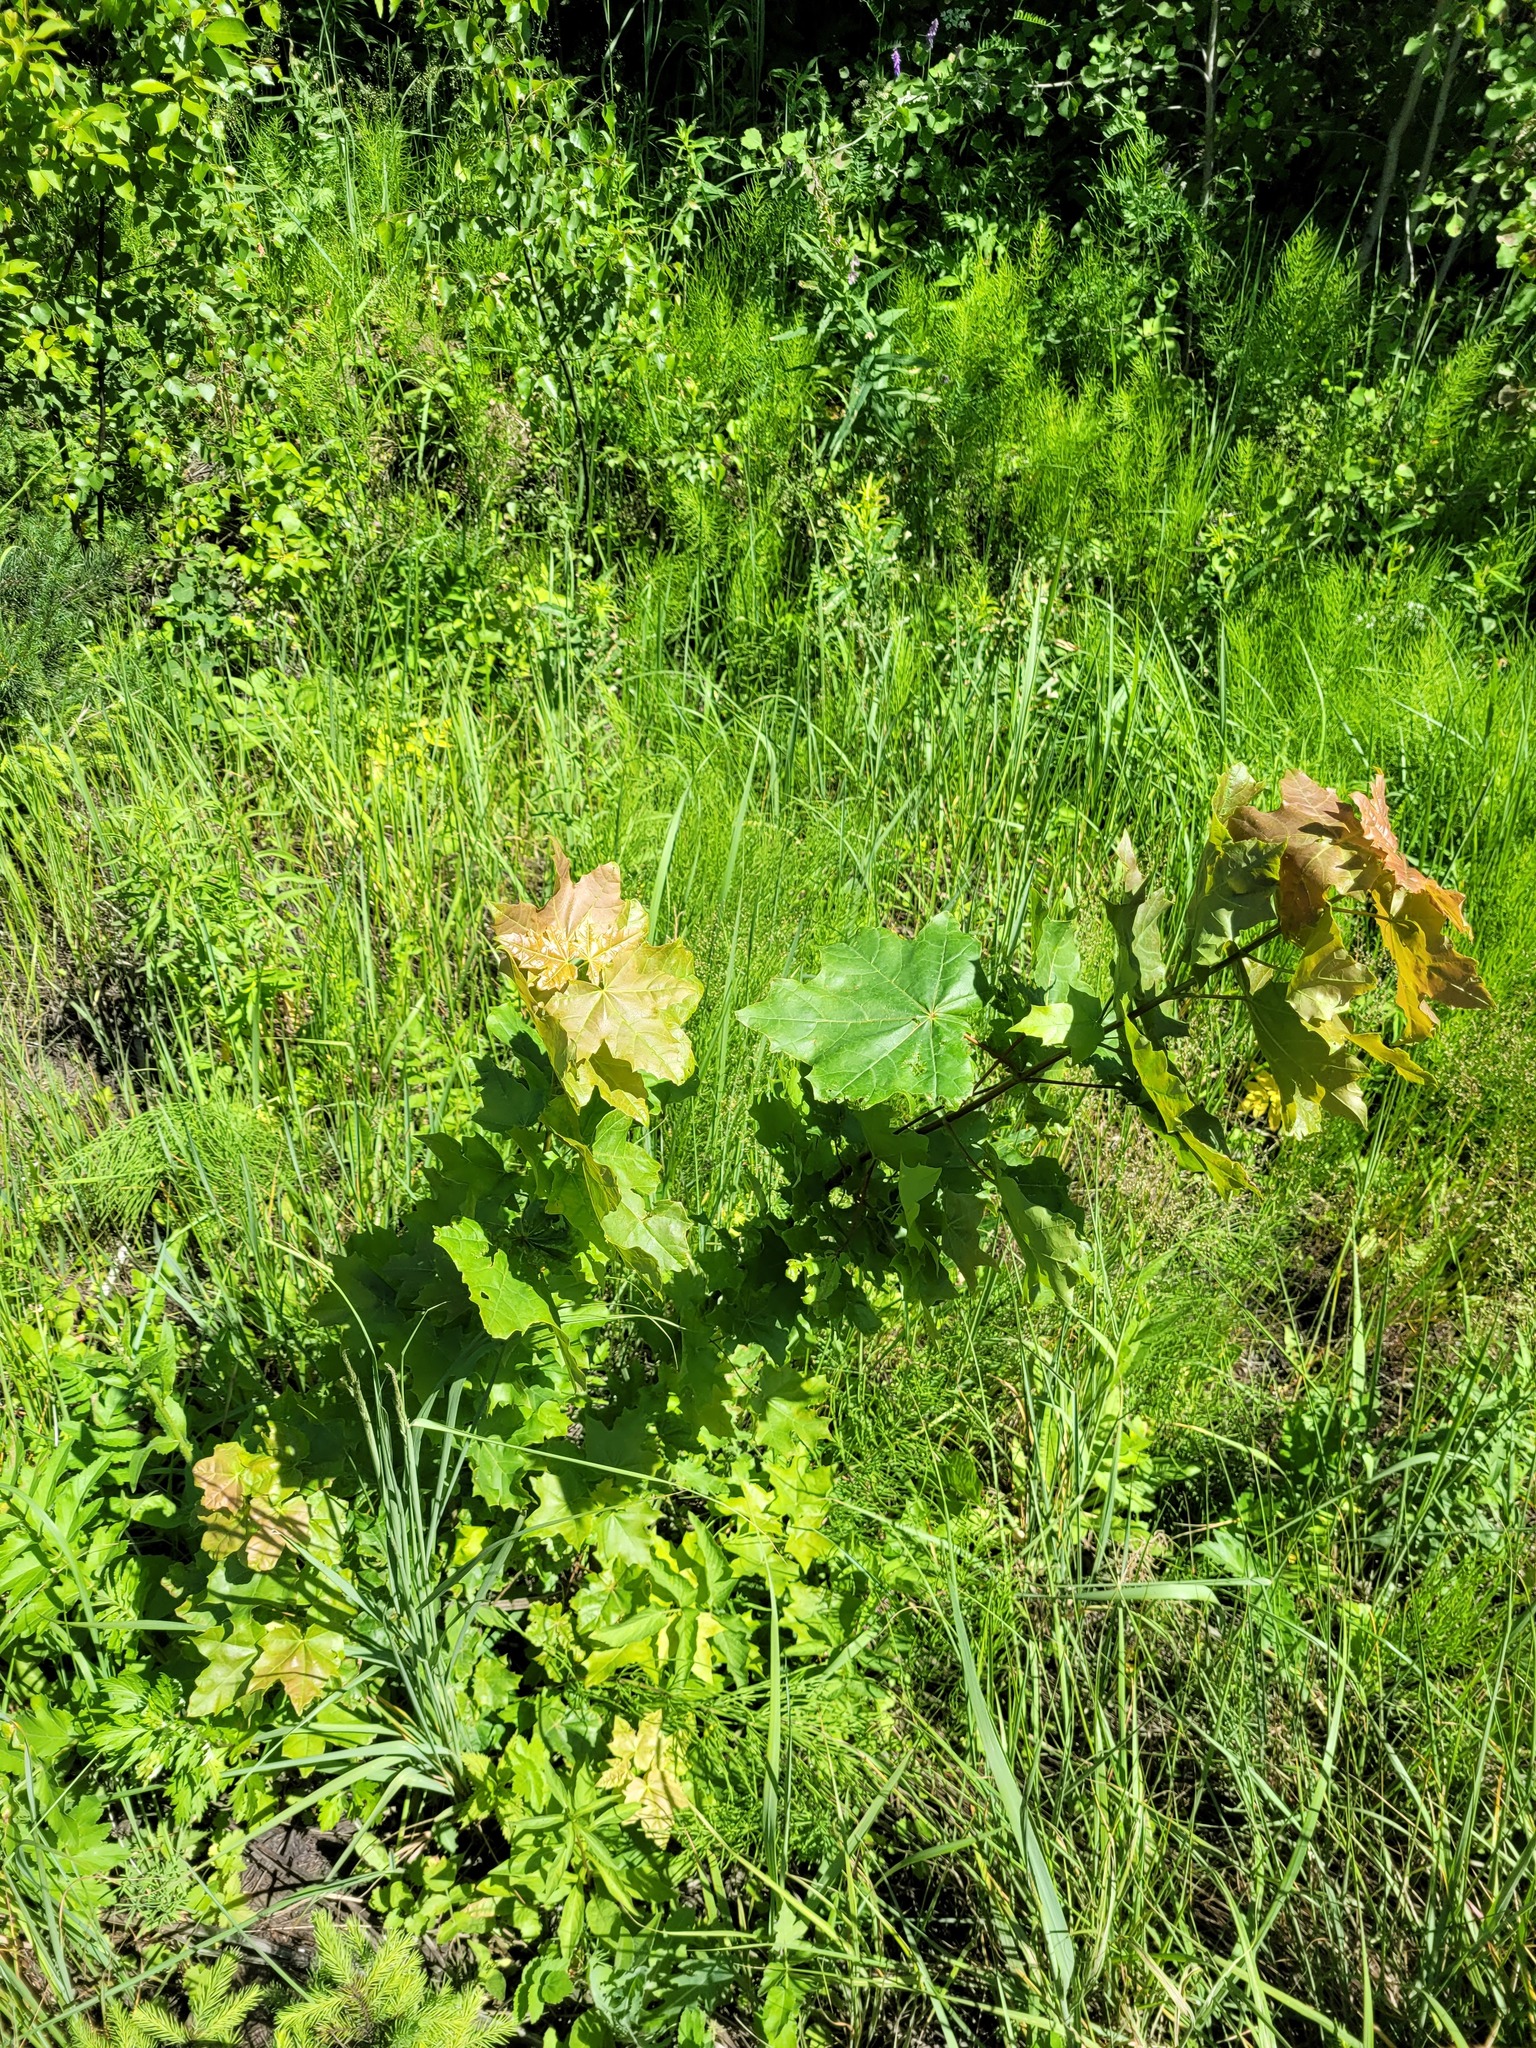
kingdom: Plantae
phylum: Tracheophyta
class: Magnoliopsida
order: Sapindales
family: Sapindaceae
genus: Acer
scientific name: Acer platanoides
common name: Norway maple
